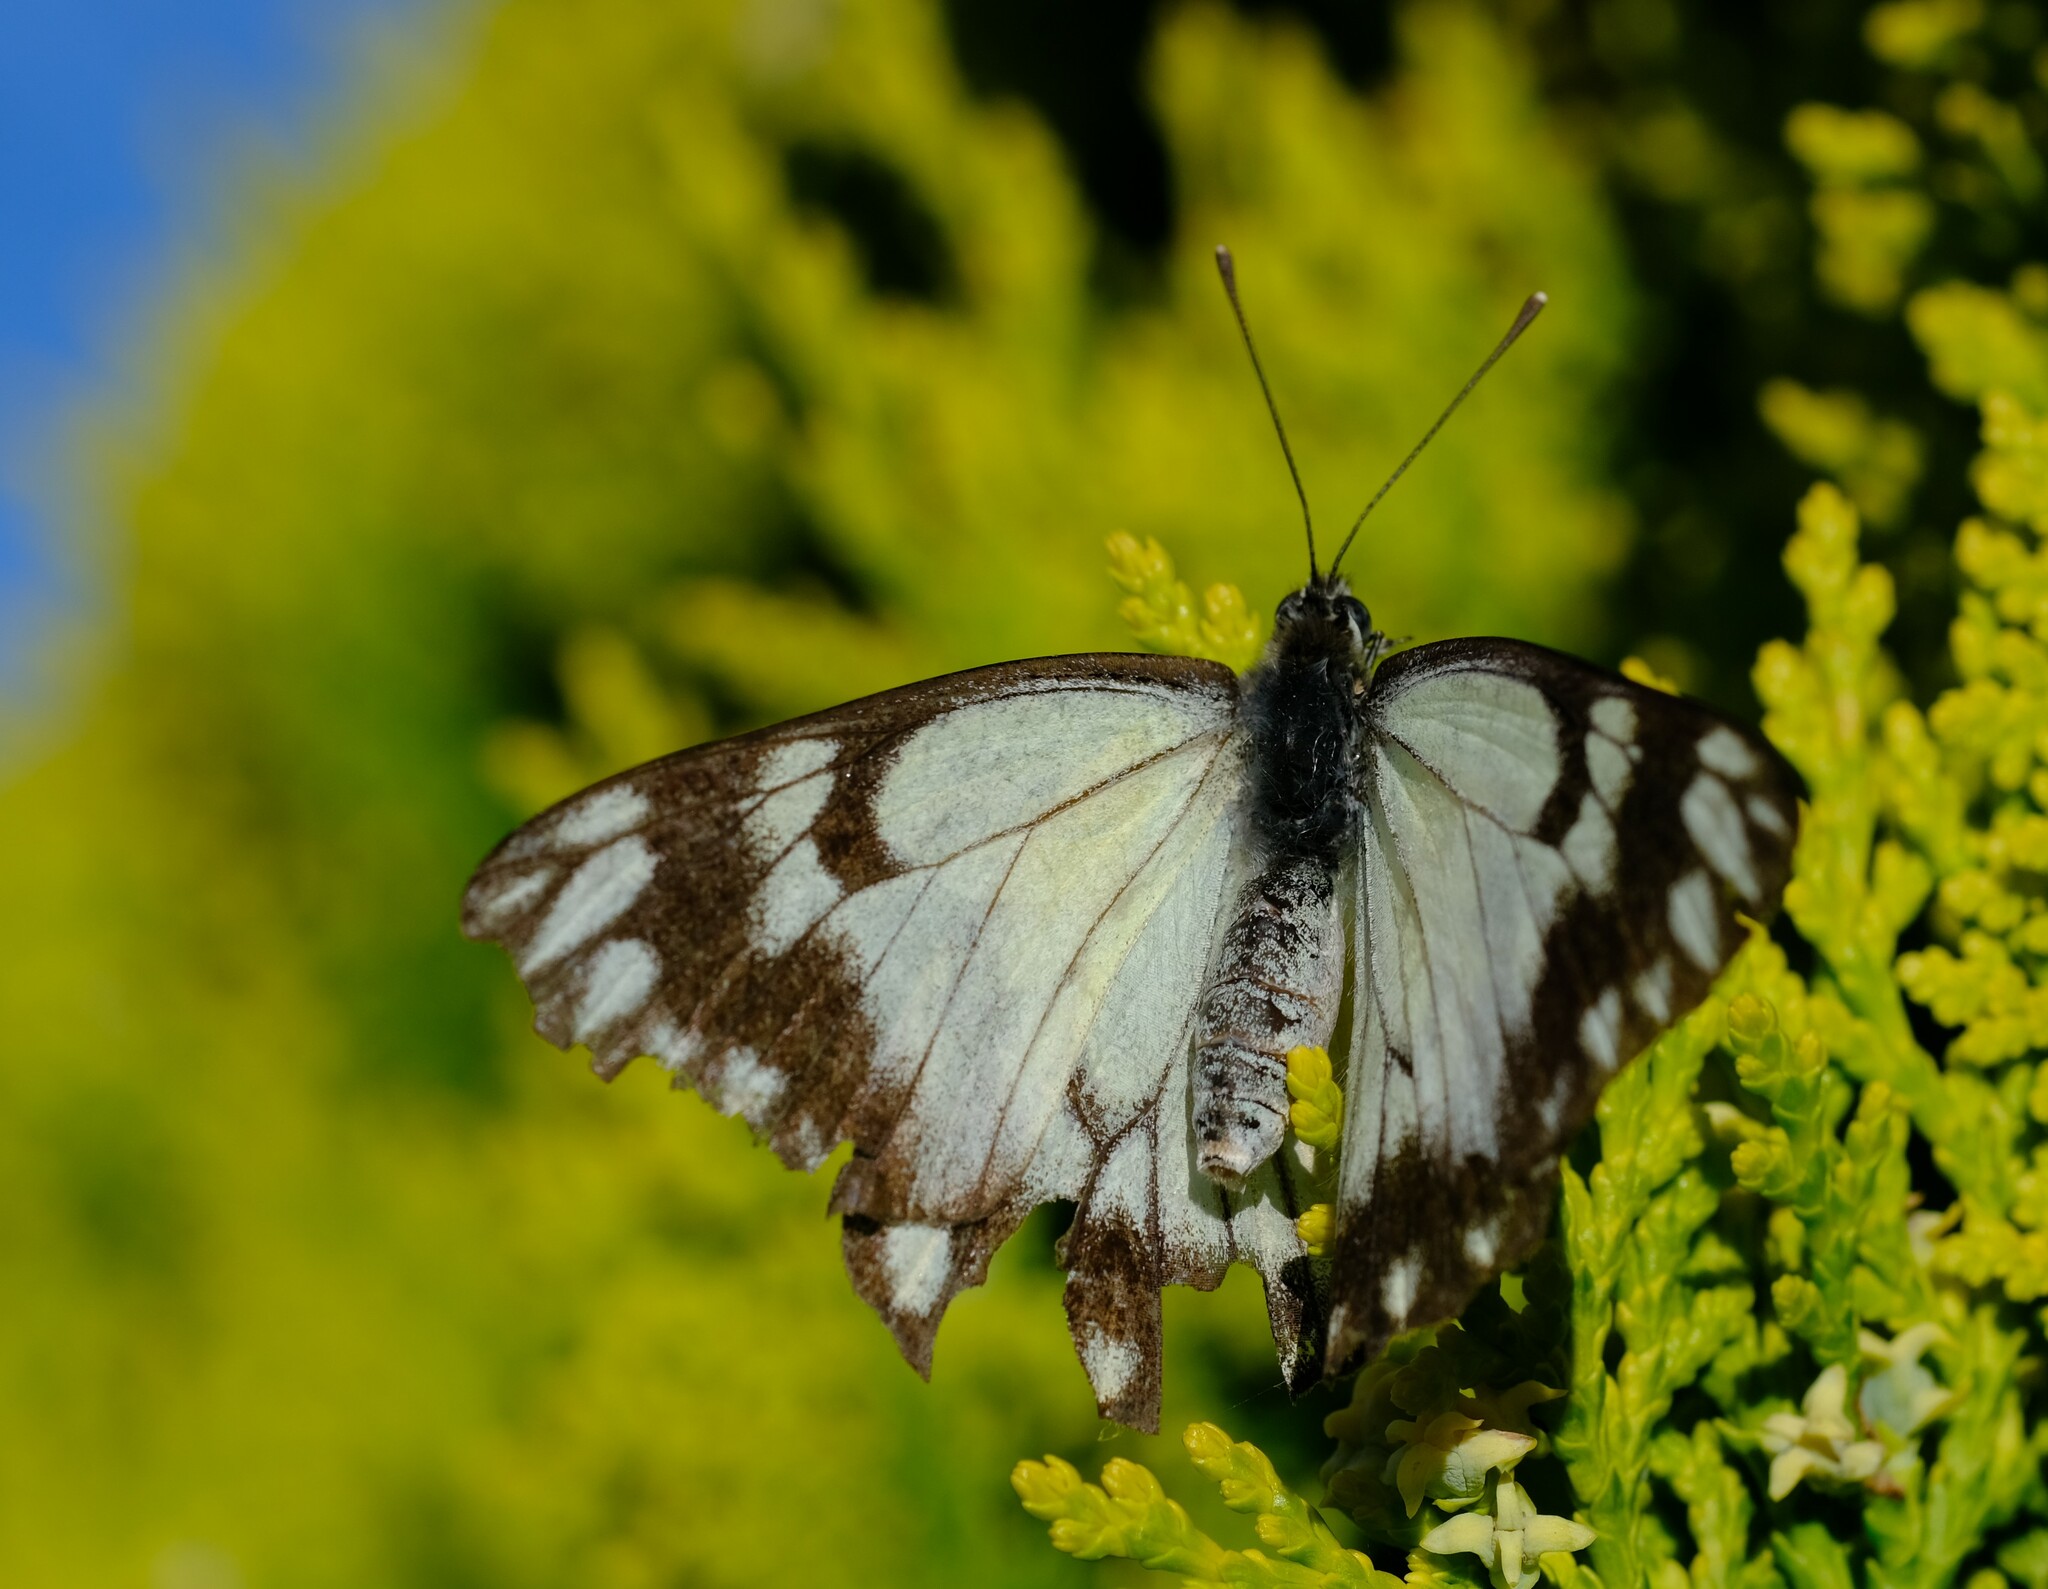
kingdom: Animalia
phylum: Arthropoda
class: Insecta
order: Lepidoptera
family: Pieridae
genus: Belenois
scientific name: Belenois java
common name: Caper white
